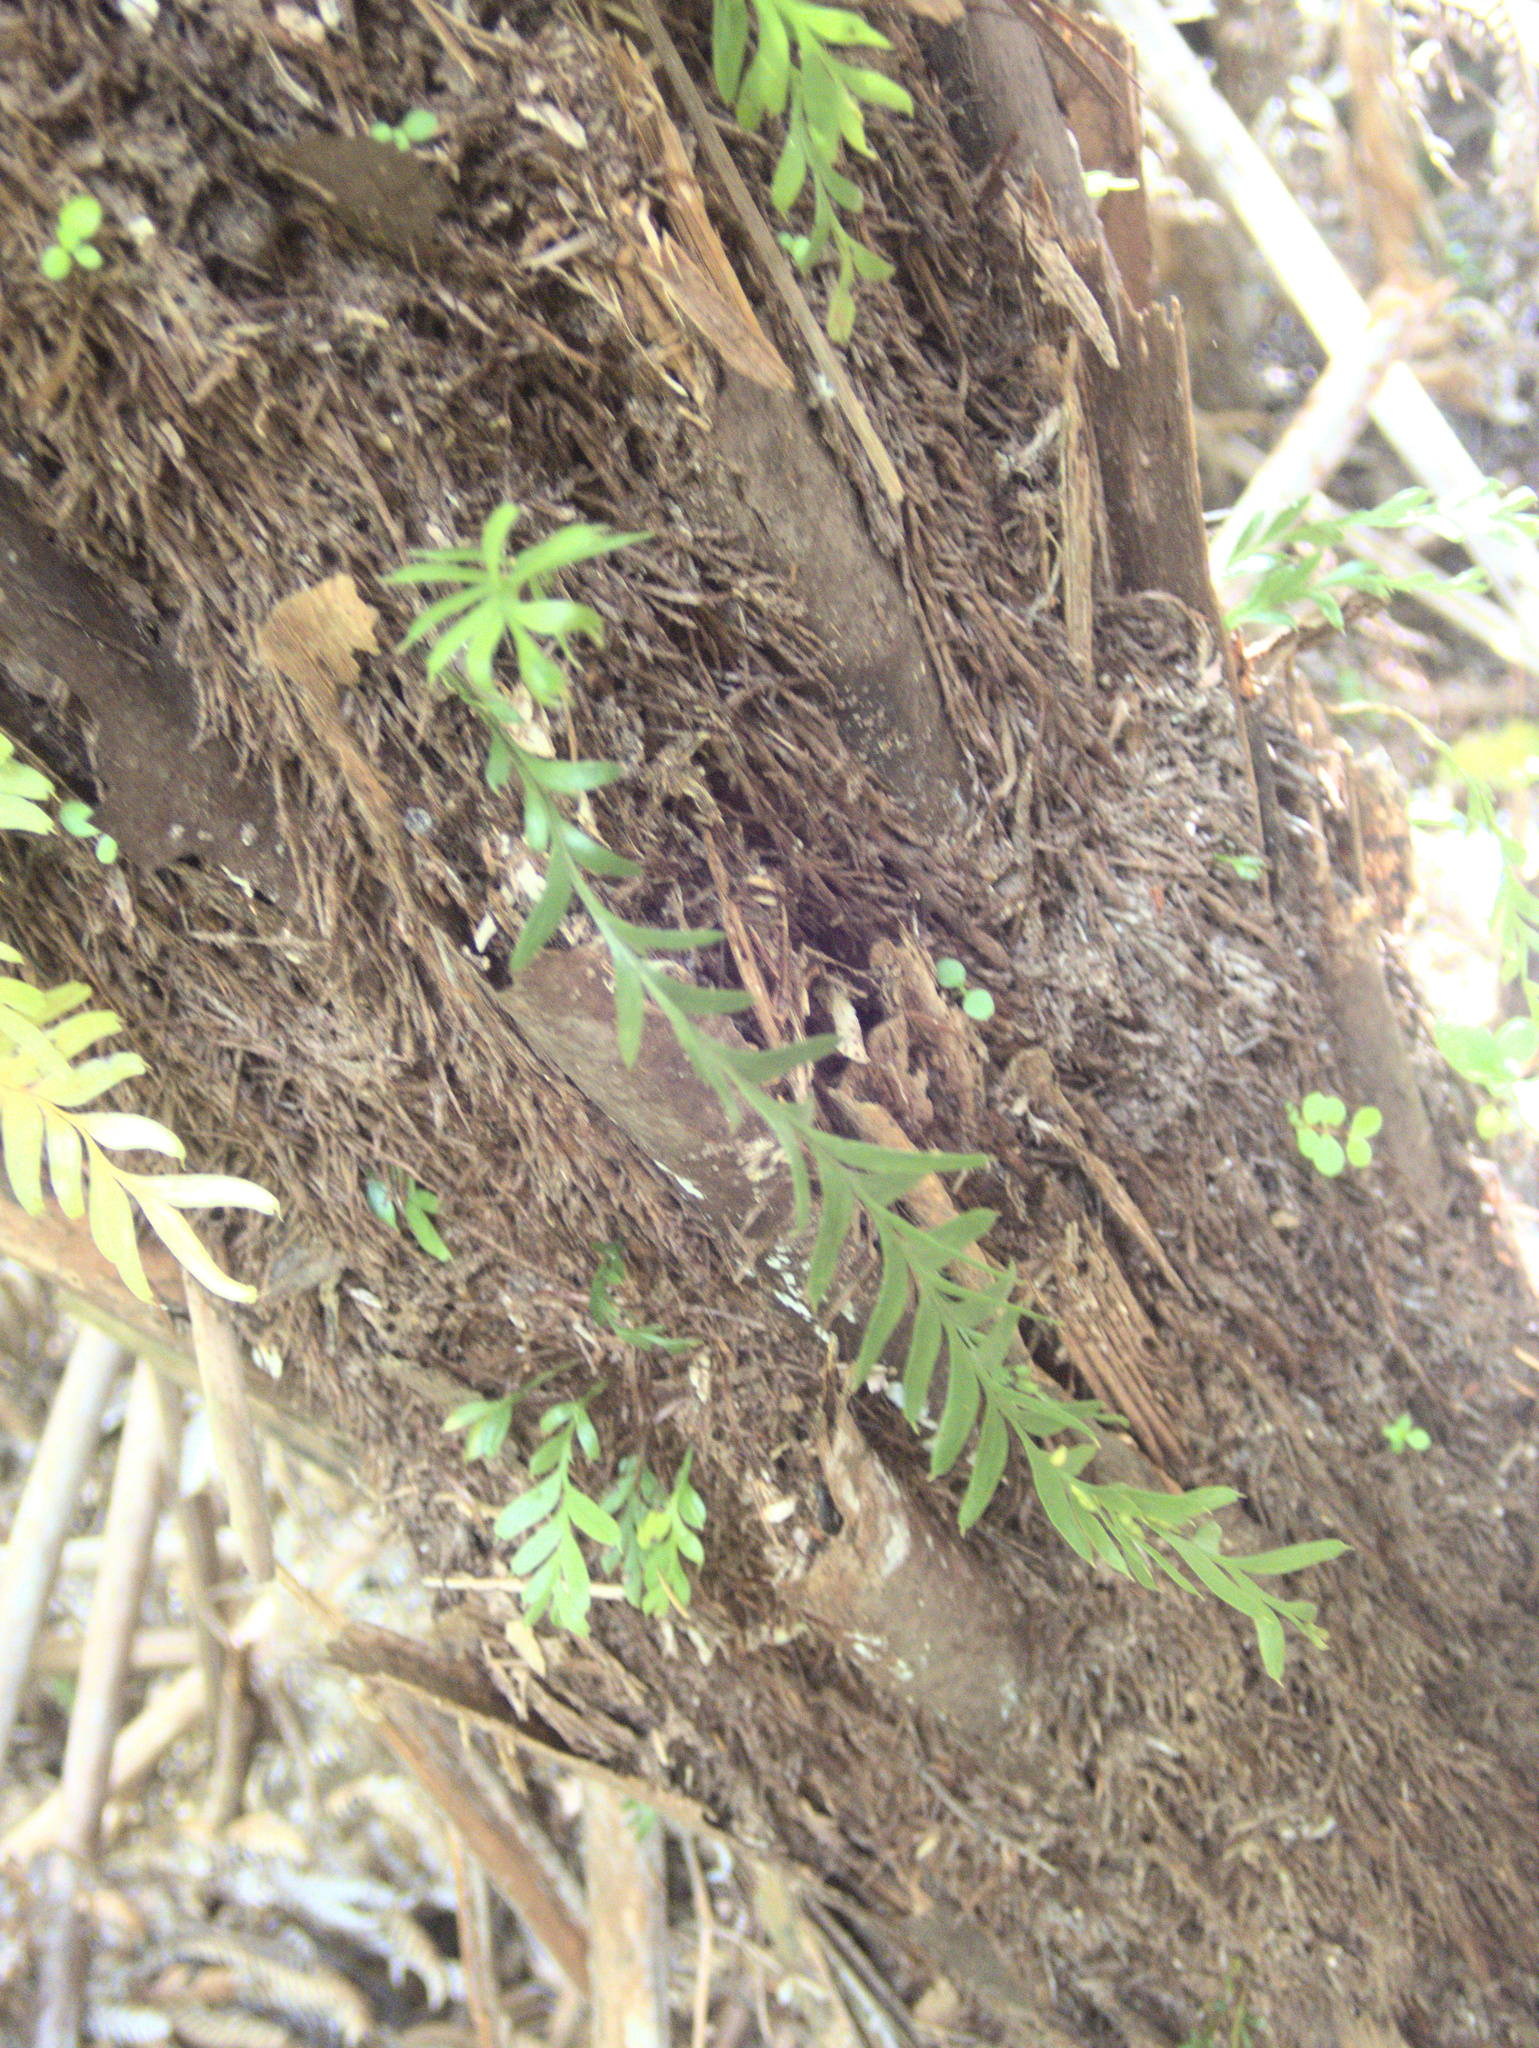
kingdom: Plantae
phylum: Tracheophyta
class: Polypodiopsida
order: Psilotales
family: Psilotaceae
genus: Tmesipteris
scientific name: Tmesipteris tannensis
